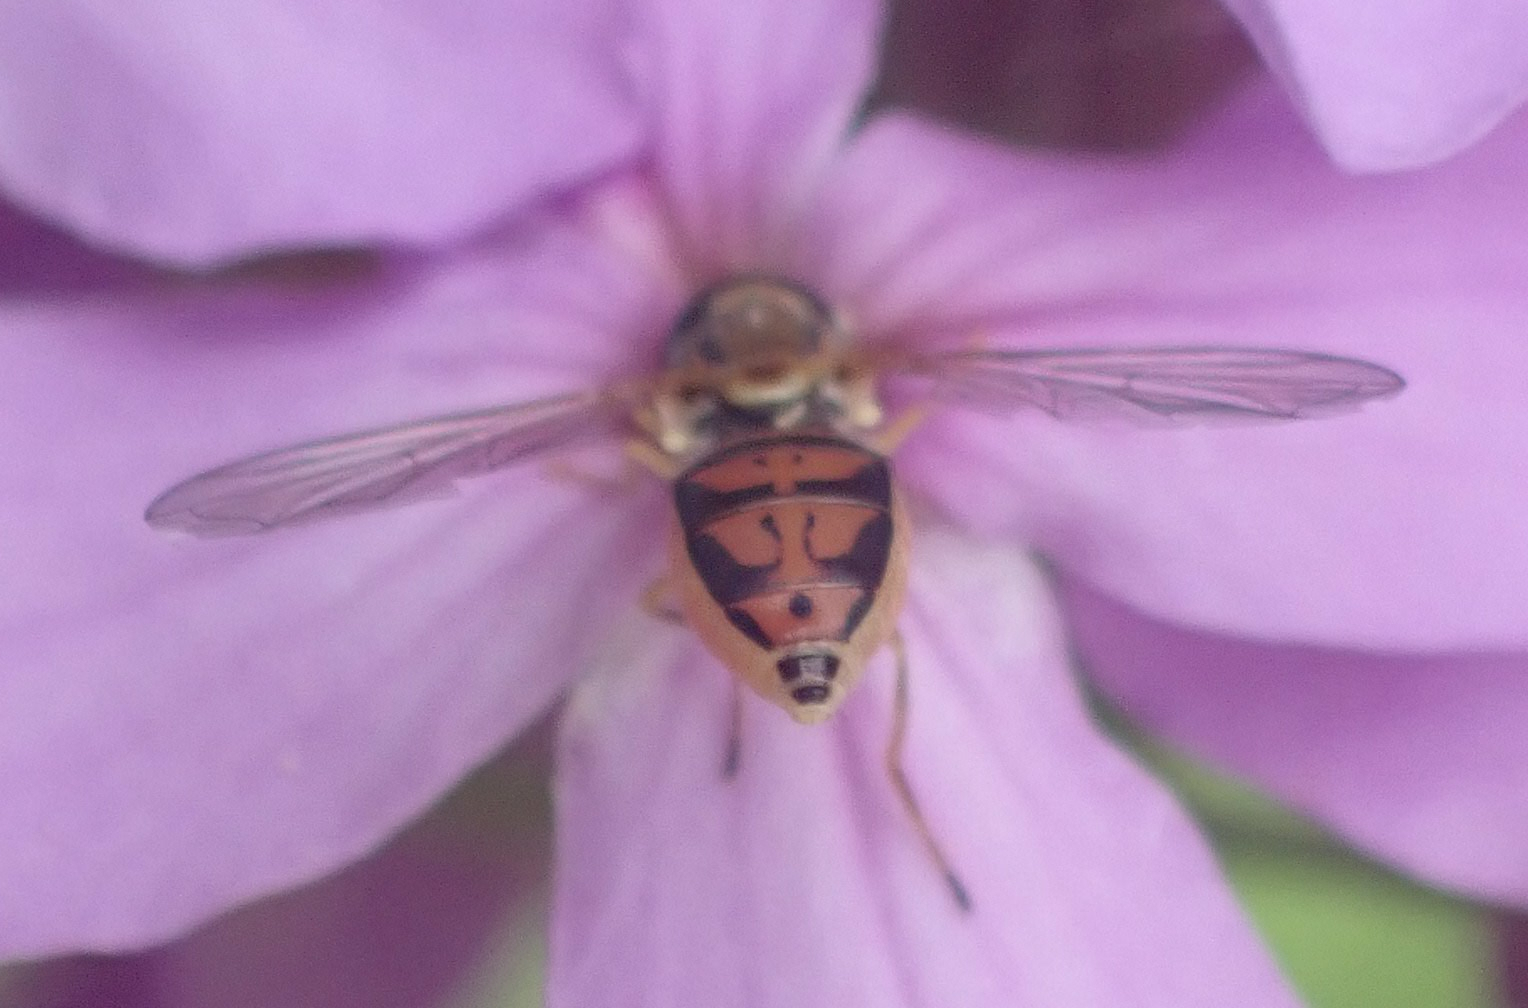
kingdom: Animalia
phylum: Arthropoda
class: Insecta
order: Diptera
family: Syrphidae
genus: Toxomerus
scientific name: Toxomerus marginatus
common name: Syrphid fly
